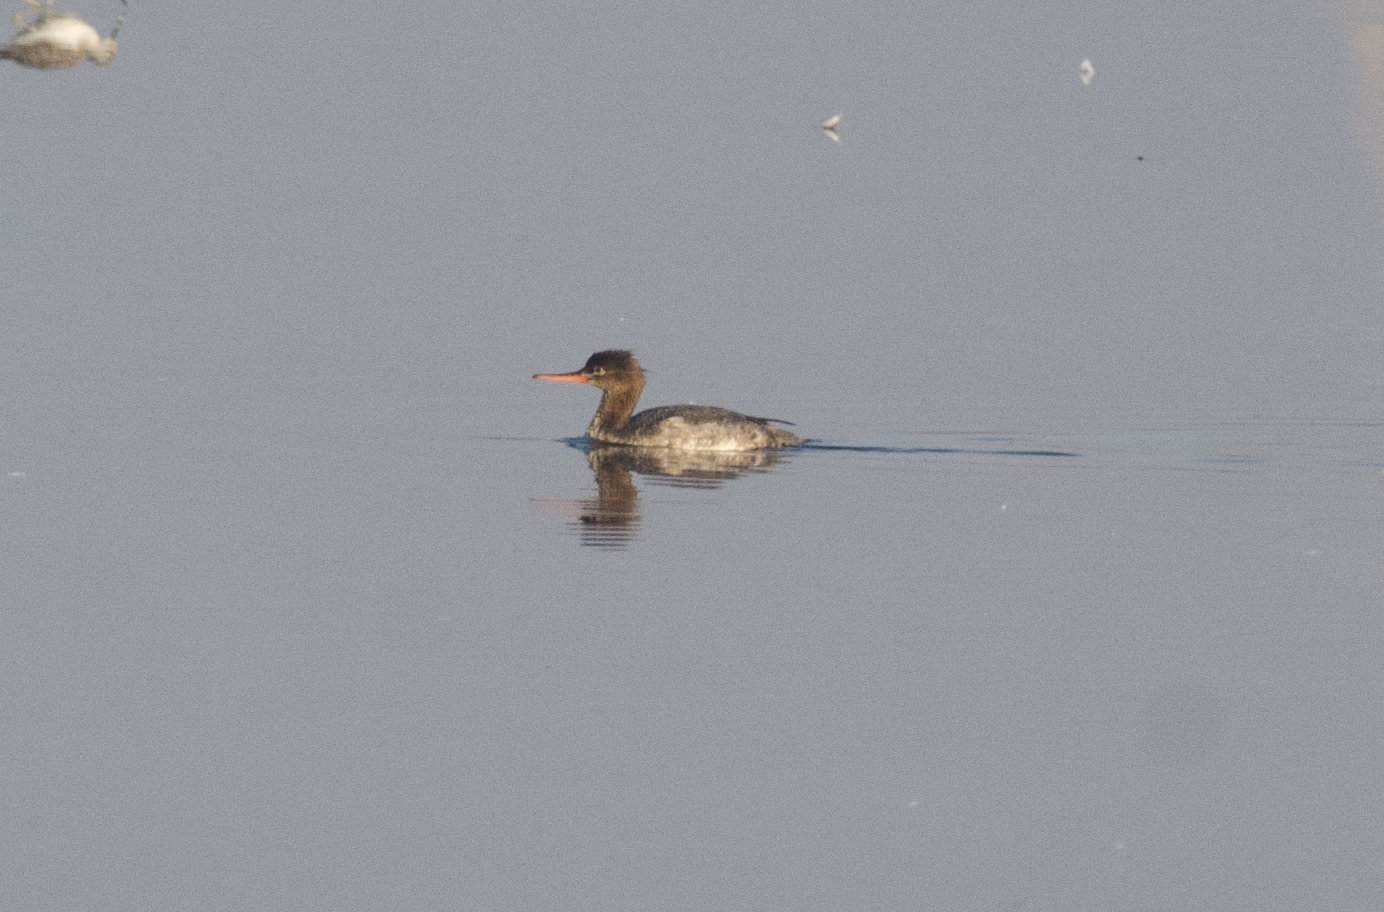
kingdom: Animalia
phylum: Chordata
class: Aves
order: Anseriformes
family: Anatidae
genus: Mergus
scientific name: Mergus serrator
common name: Red-breasted merganser
